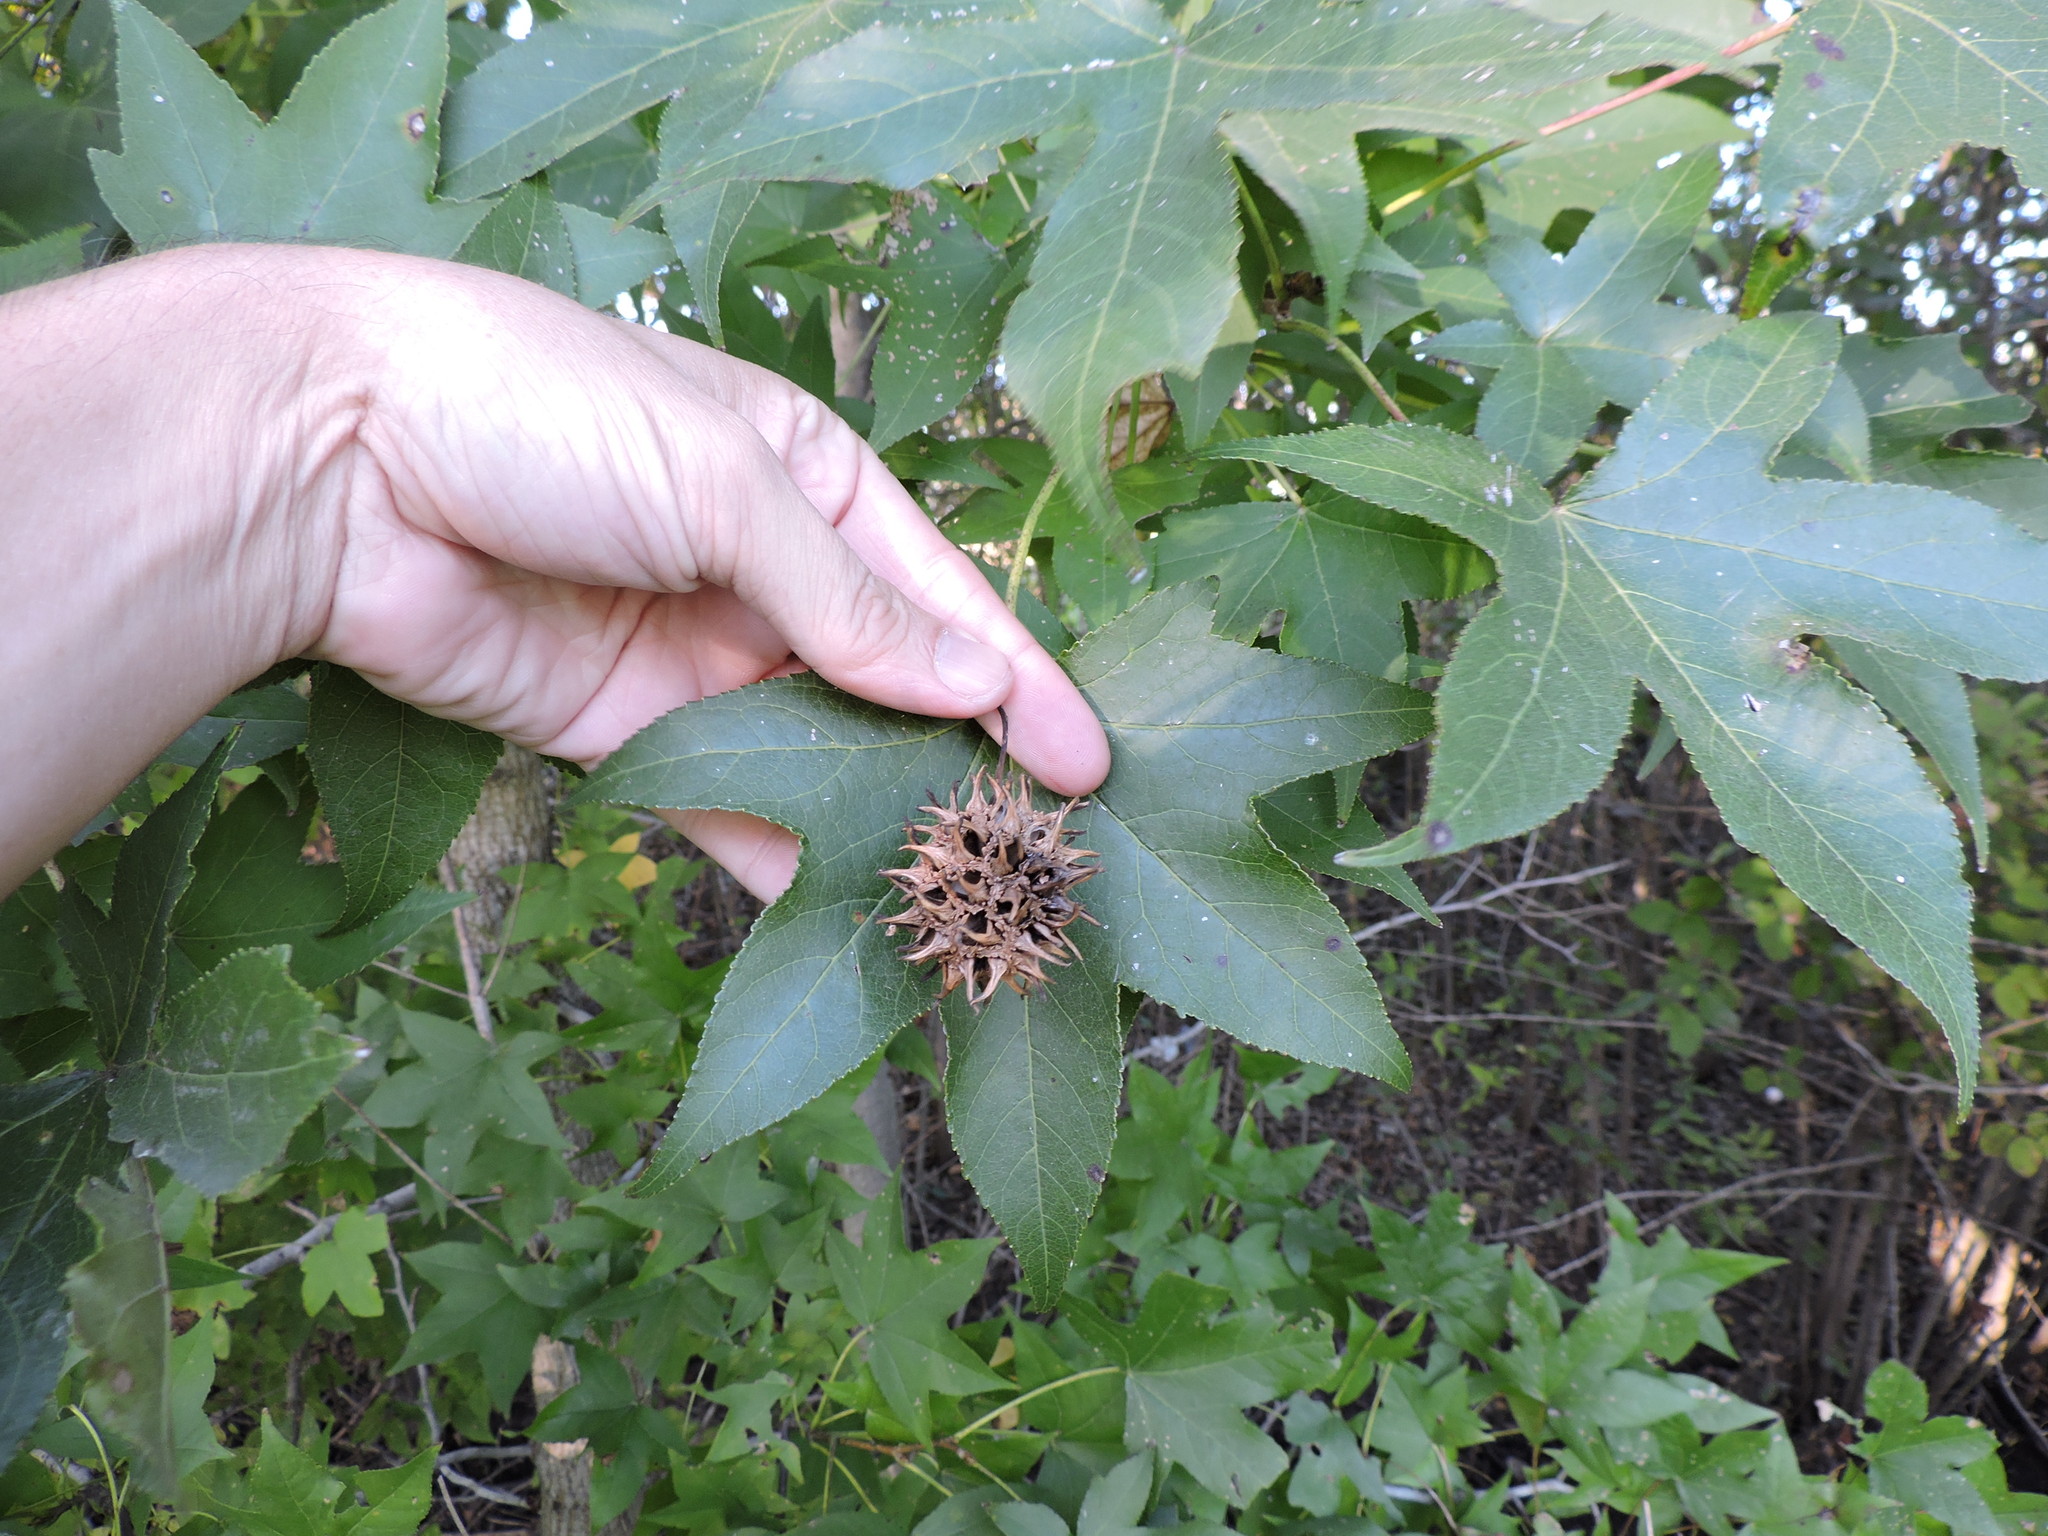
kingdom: Plantae
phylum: Tracheophyta
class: Magnoliopsida
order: Saxifragales
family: Altingiaceae
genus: Liquidambar
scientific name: Liquidambar styraciflua
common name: Sweet gum
